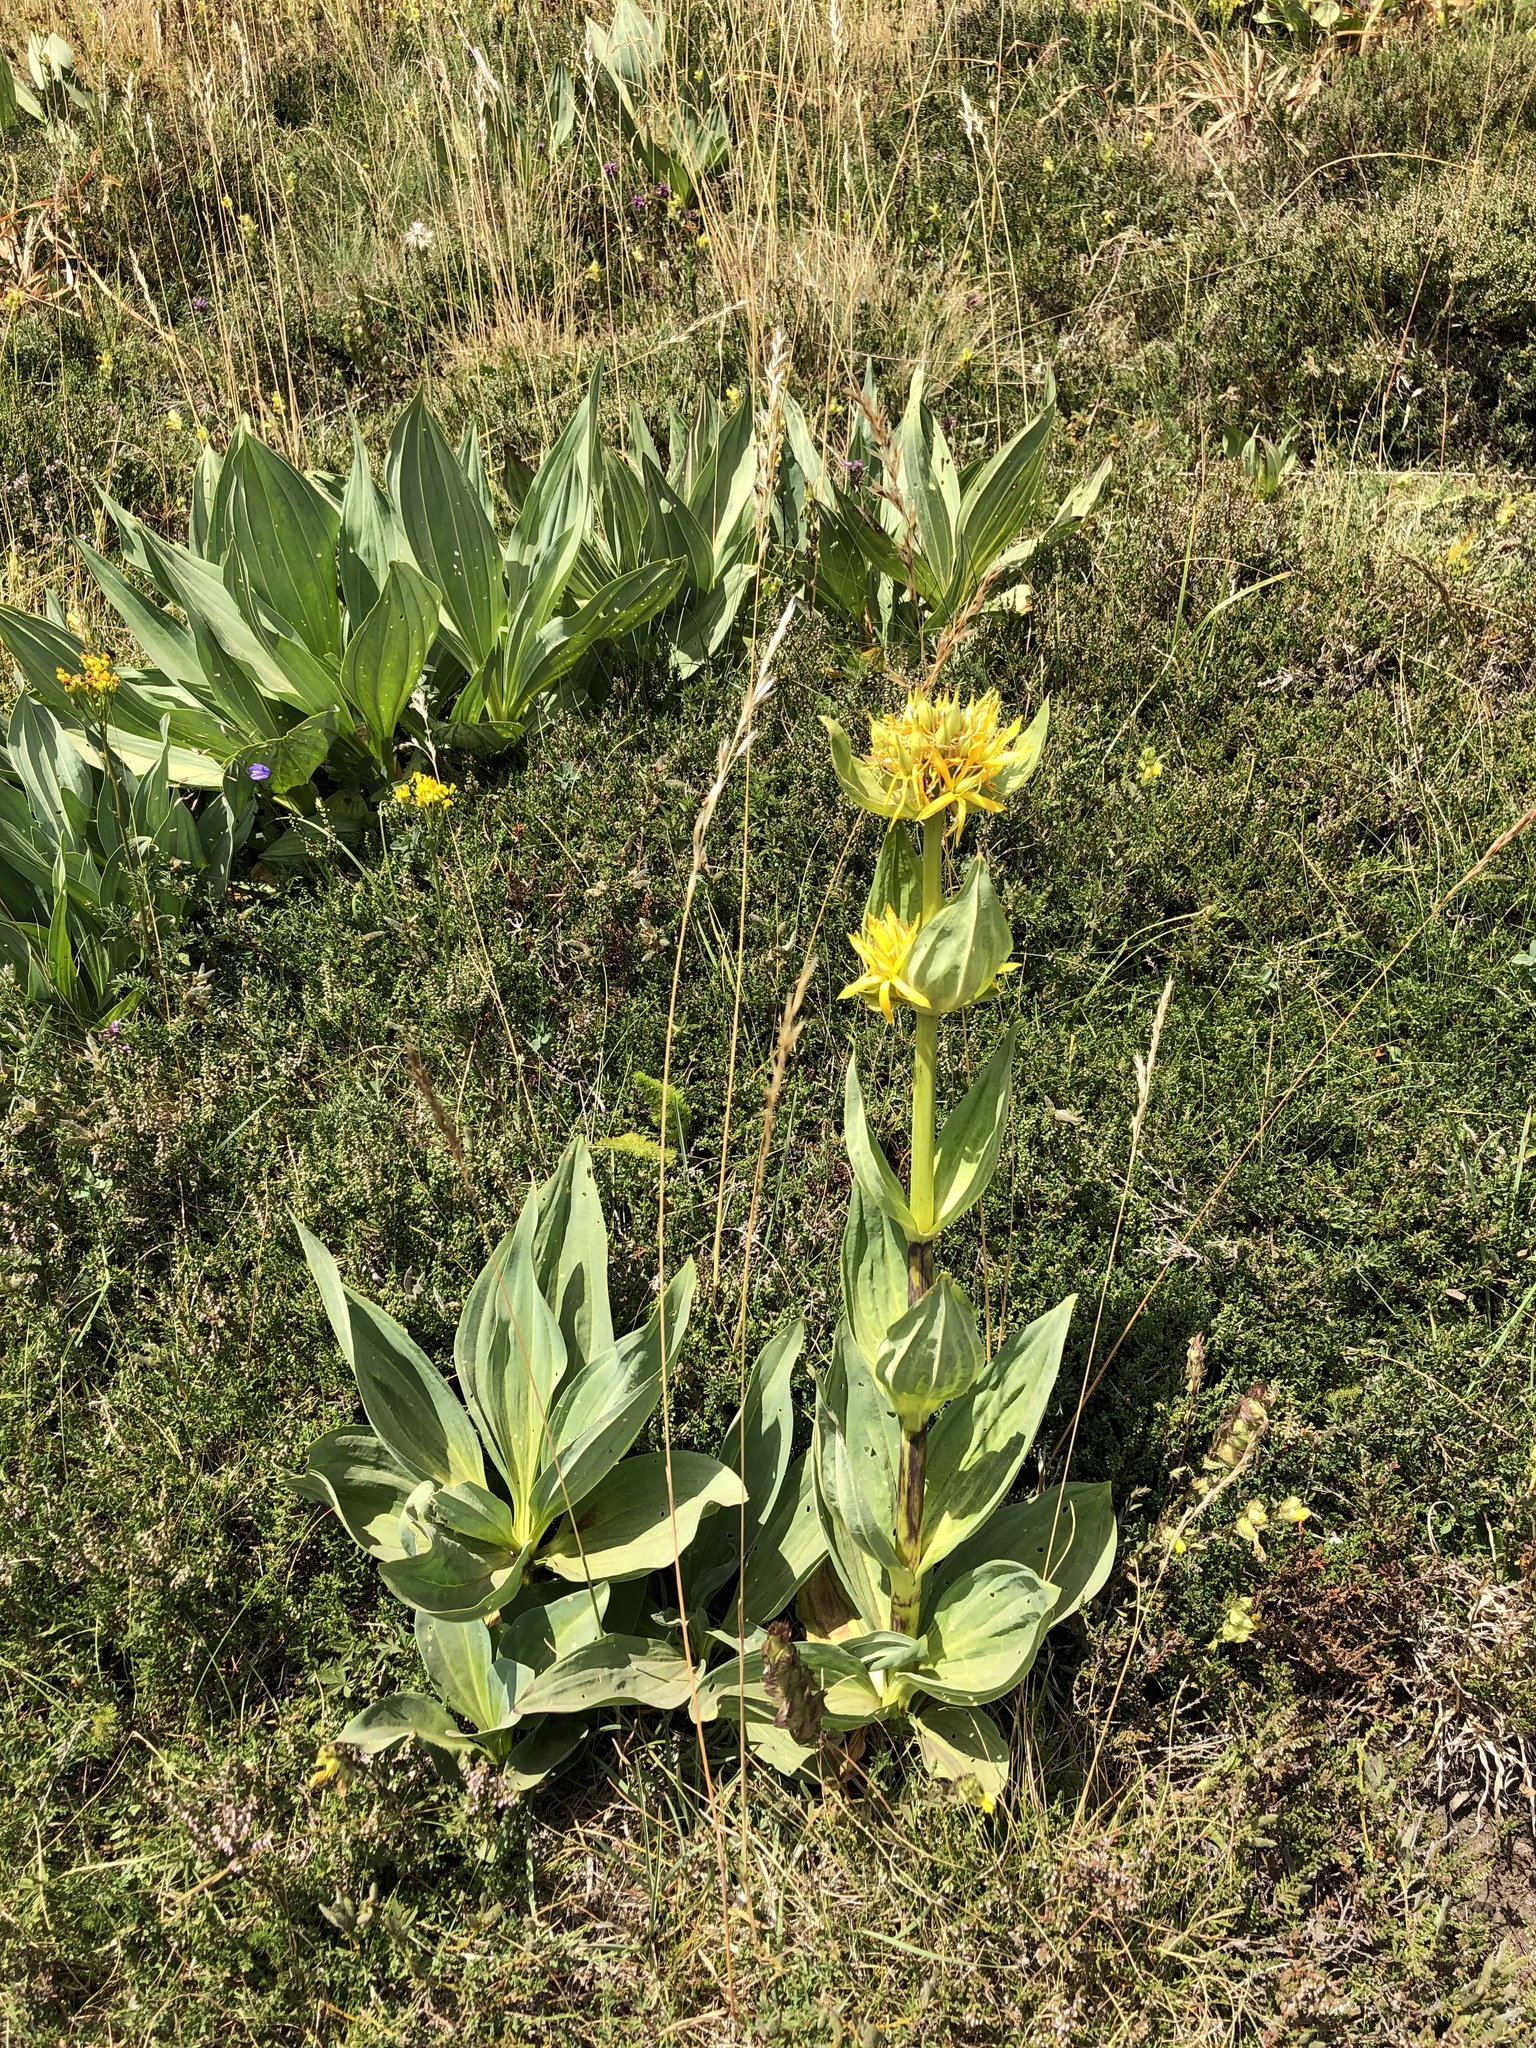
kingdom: Plantae
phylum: Tracheophyta
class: Magnoliopsida
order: Gentianales
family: Gentianaceae
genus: Gentiana
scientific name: Gentiana lutea
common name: Great yellow gentian
